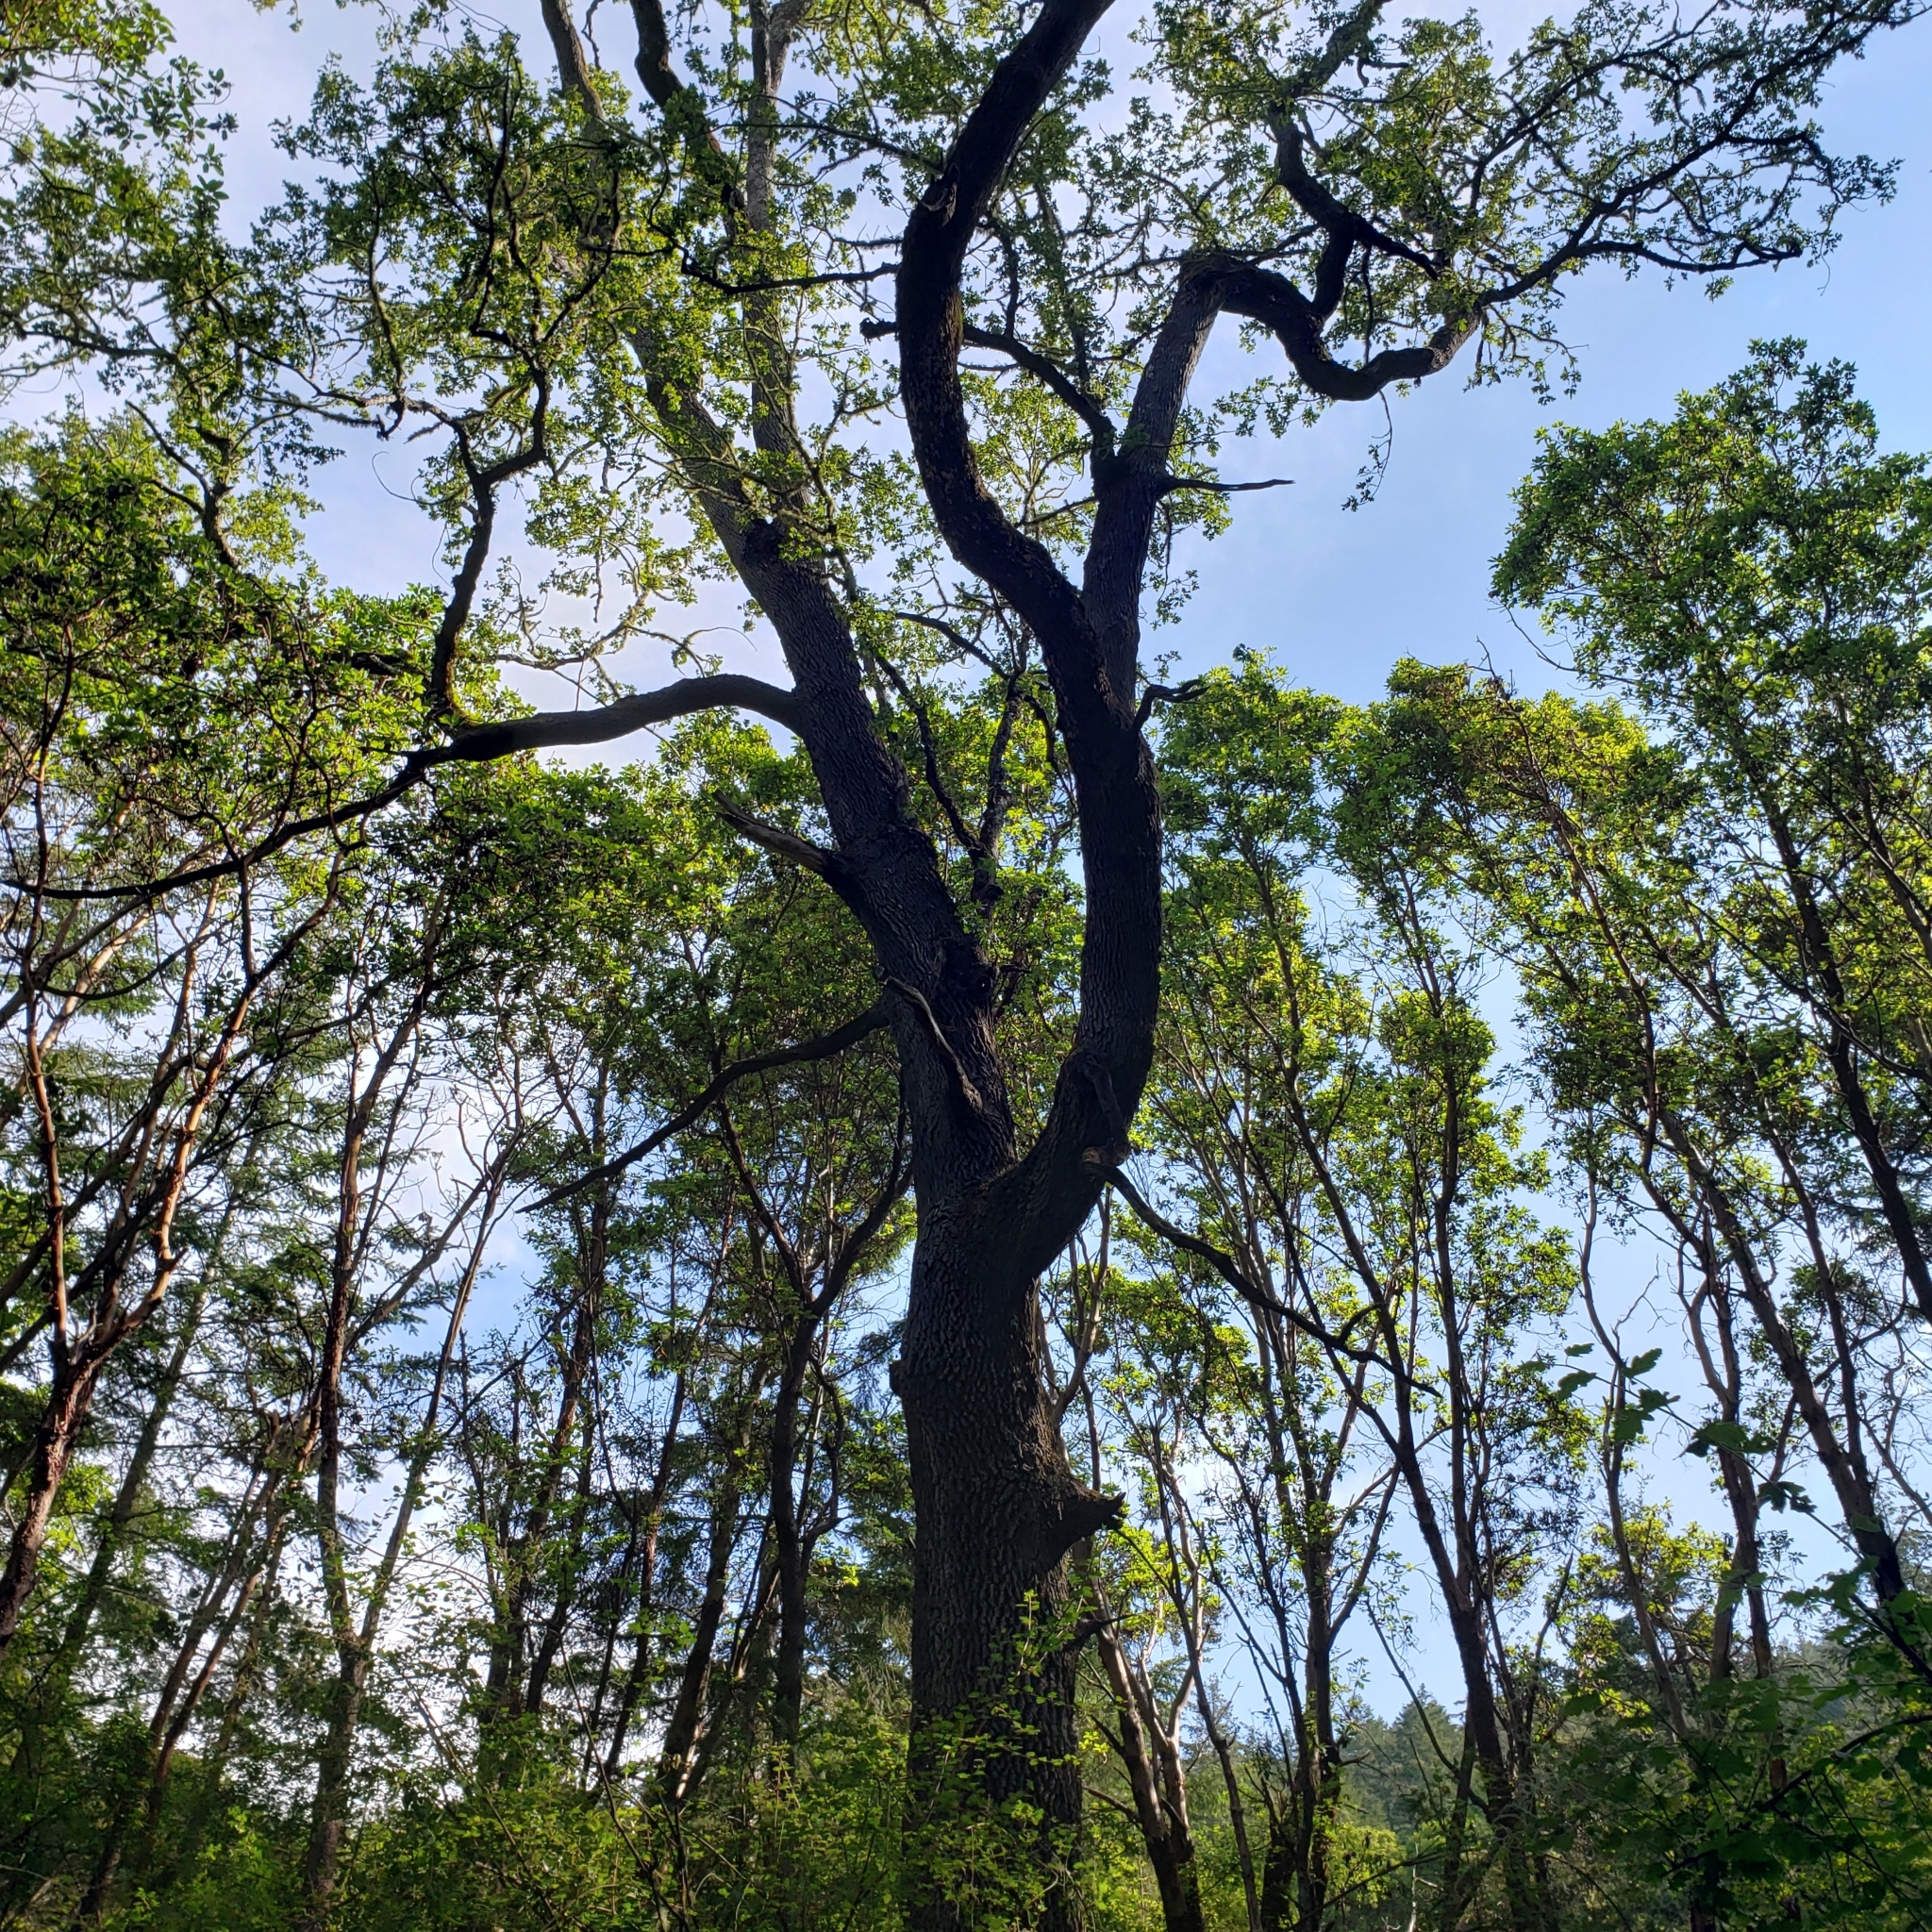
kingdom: Plantae
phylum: Tracheophyta
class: Magnoliopsida
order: Fagales
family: Fagaceae
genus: Quercus
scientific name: Quercus garryana
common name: Garry oak
